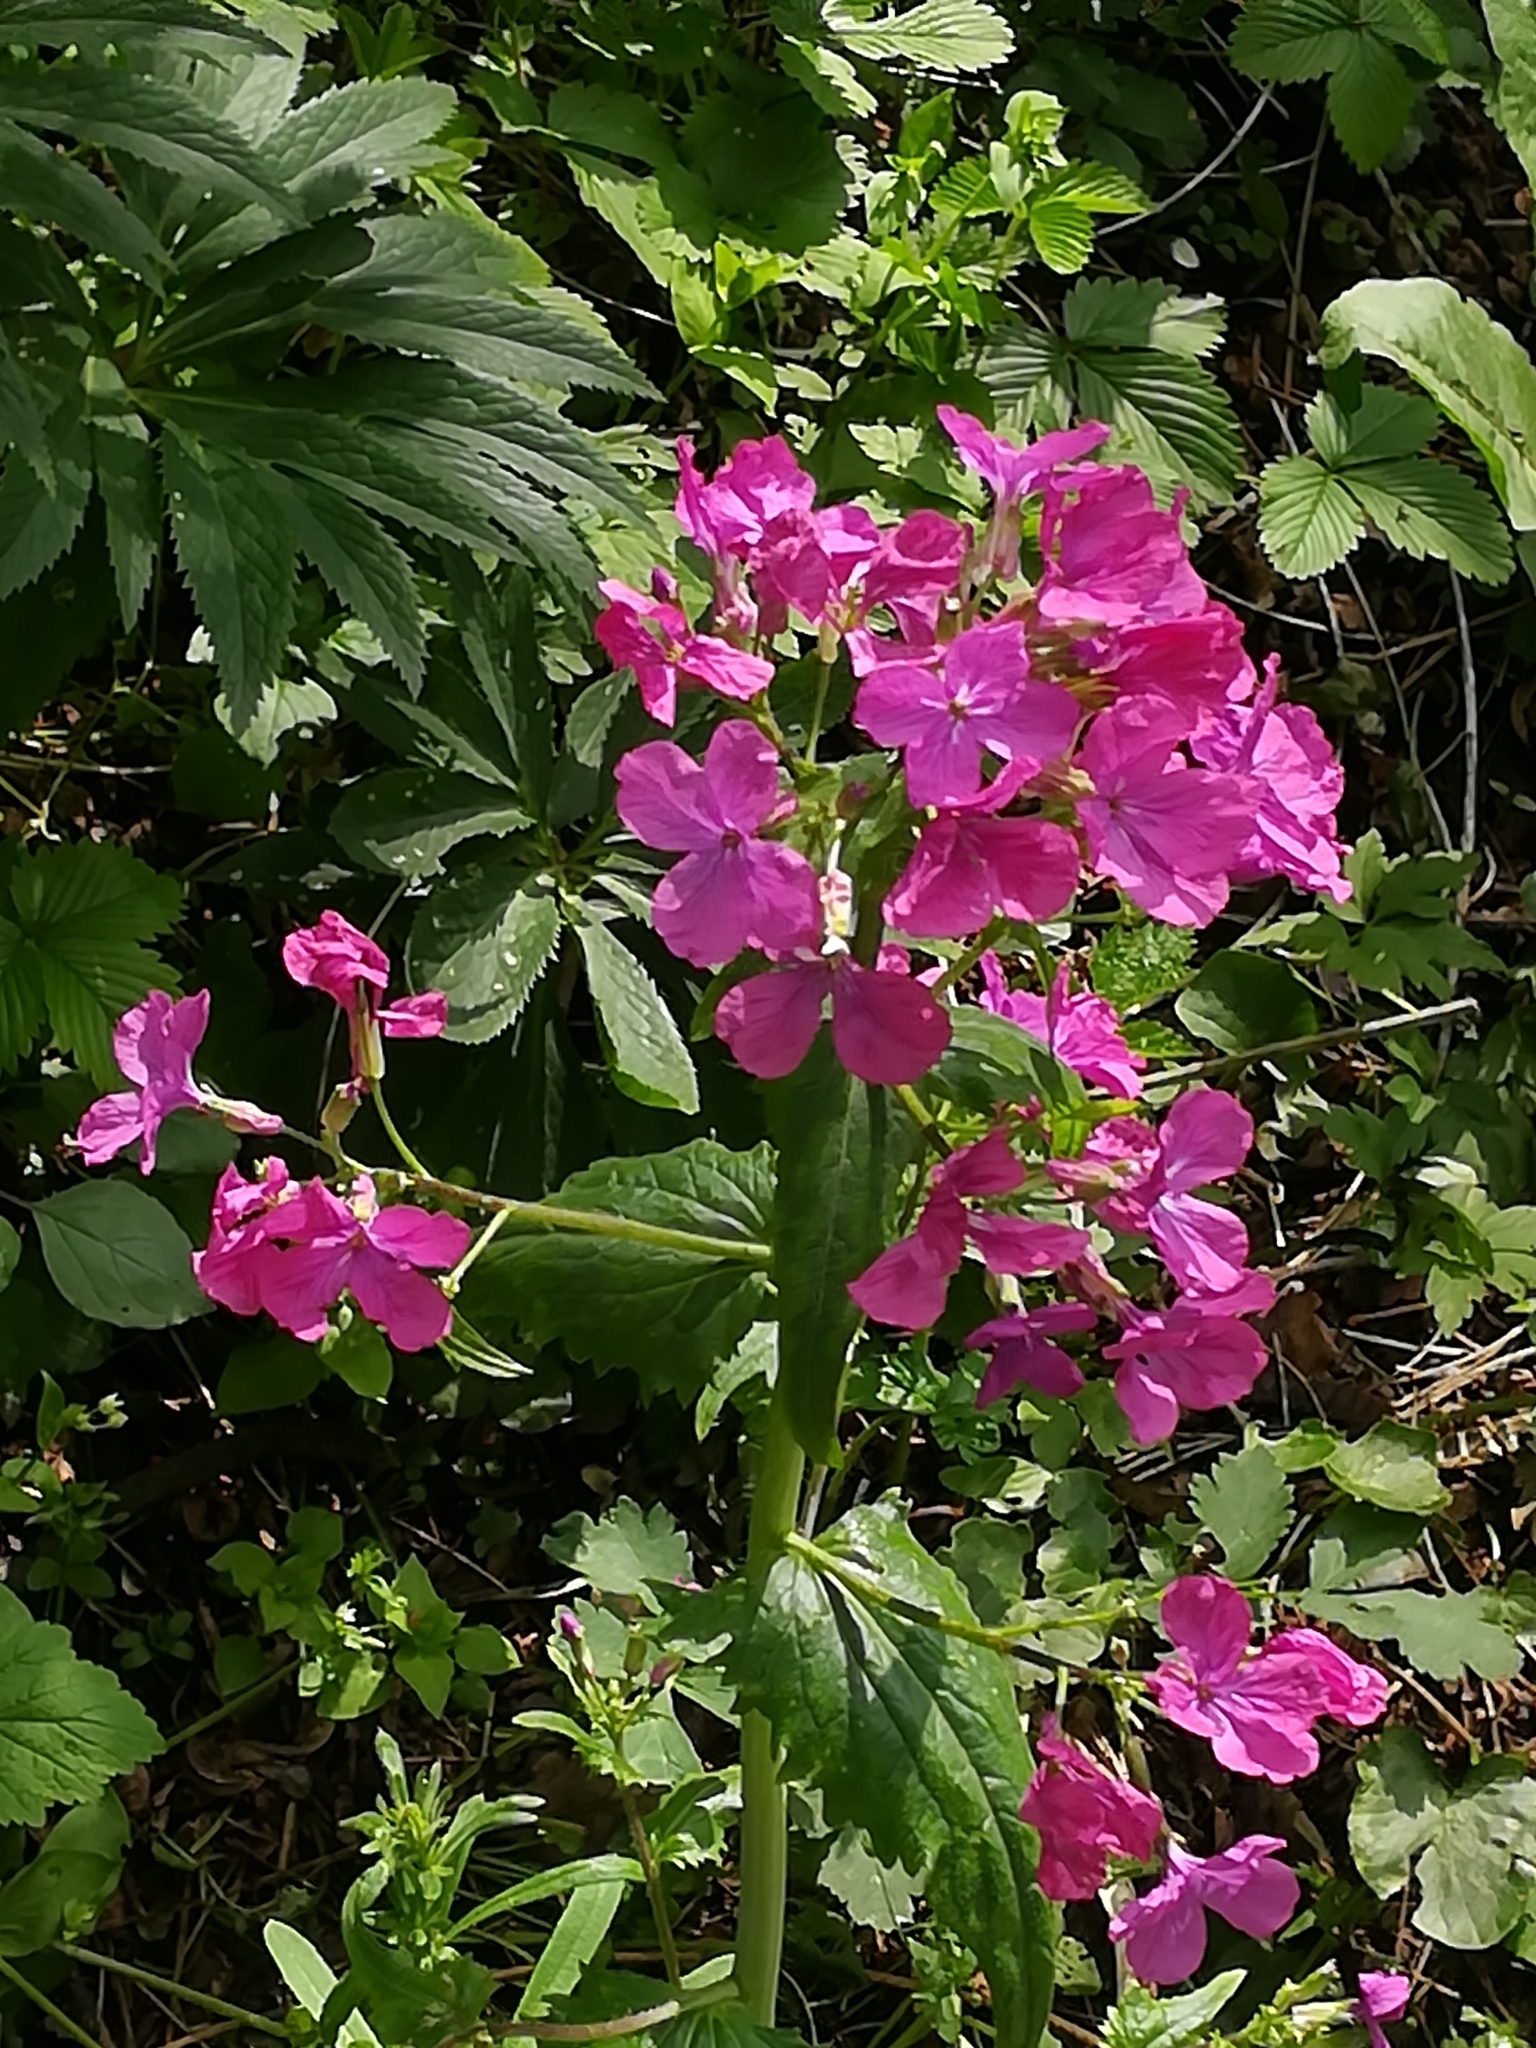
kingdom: Plantae
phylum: Tracheophyta
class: Magnoliopsida
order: Brassicales
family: Brassicaceae
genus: Lunaria
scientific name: Lunaria annua
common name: Honesty
